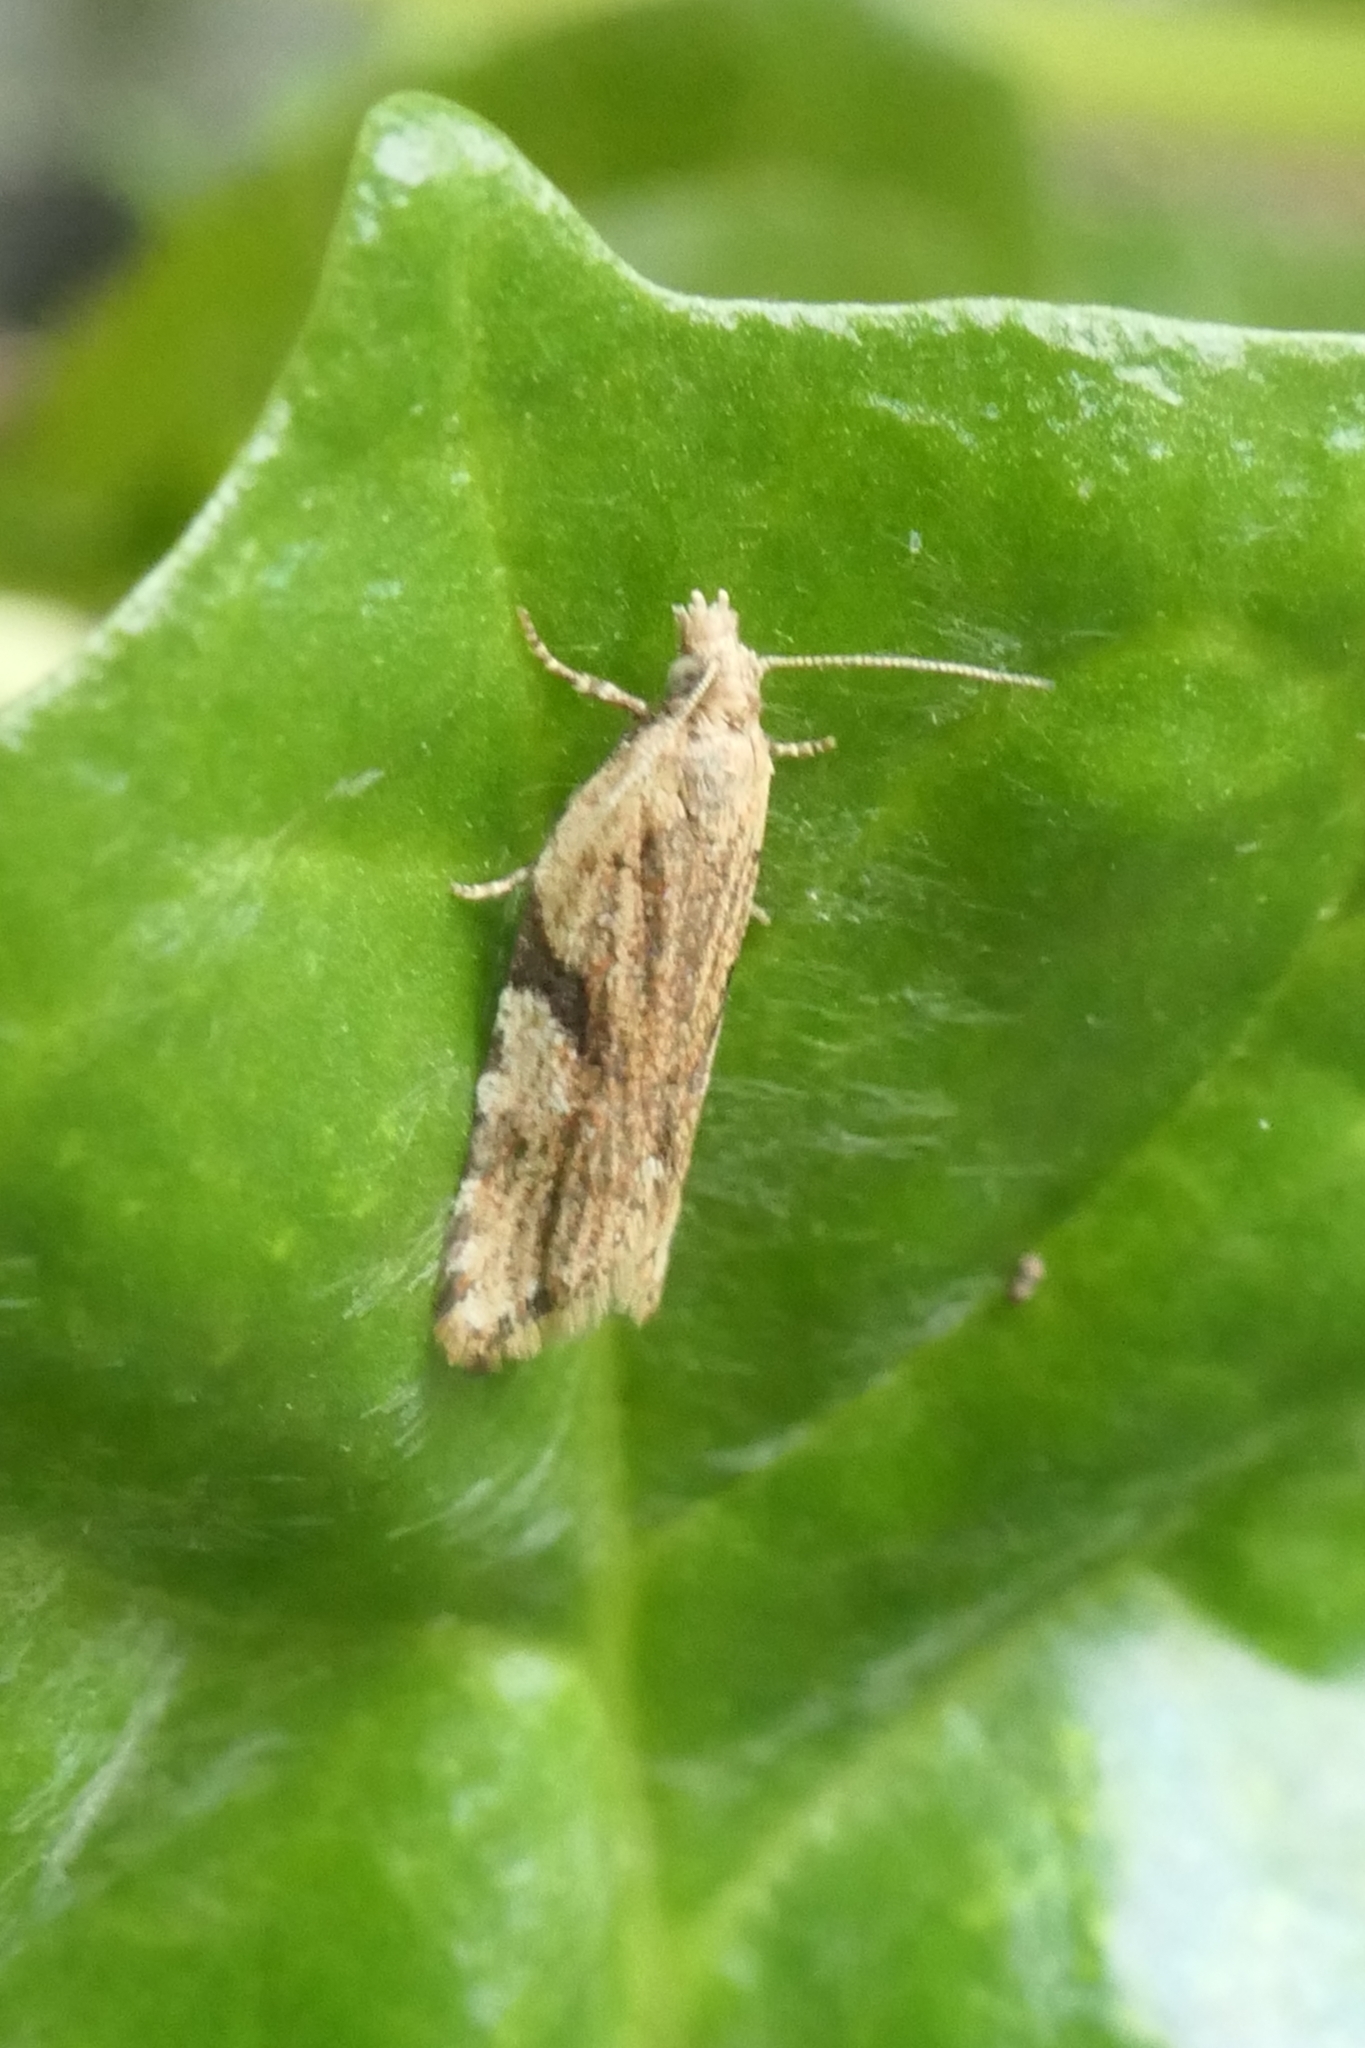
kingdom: Animalia
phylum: Arthropoda
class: Insecta
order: Lepidoptera
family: Tortricidae
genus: Capua
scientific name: Capua semiferana
